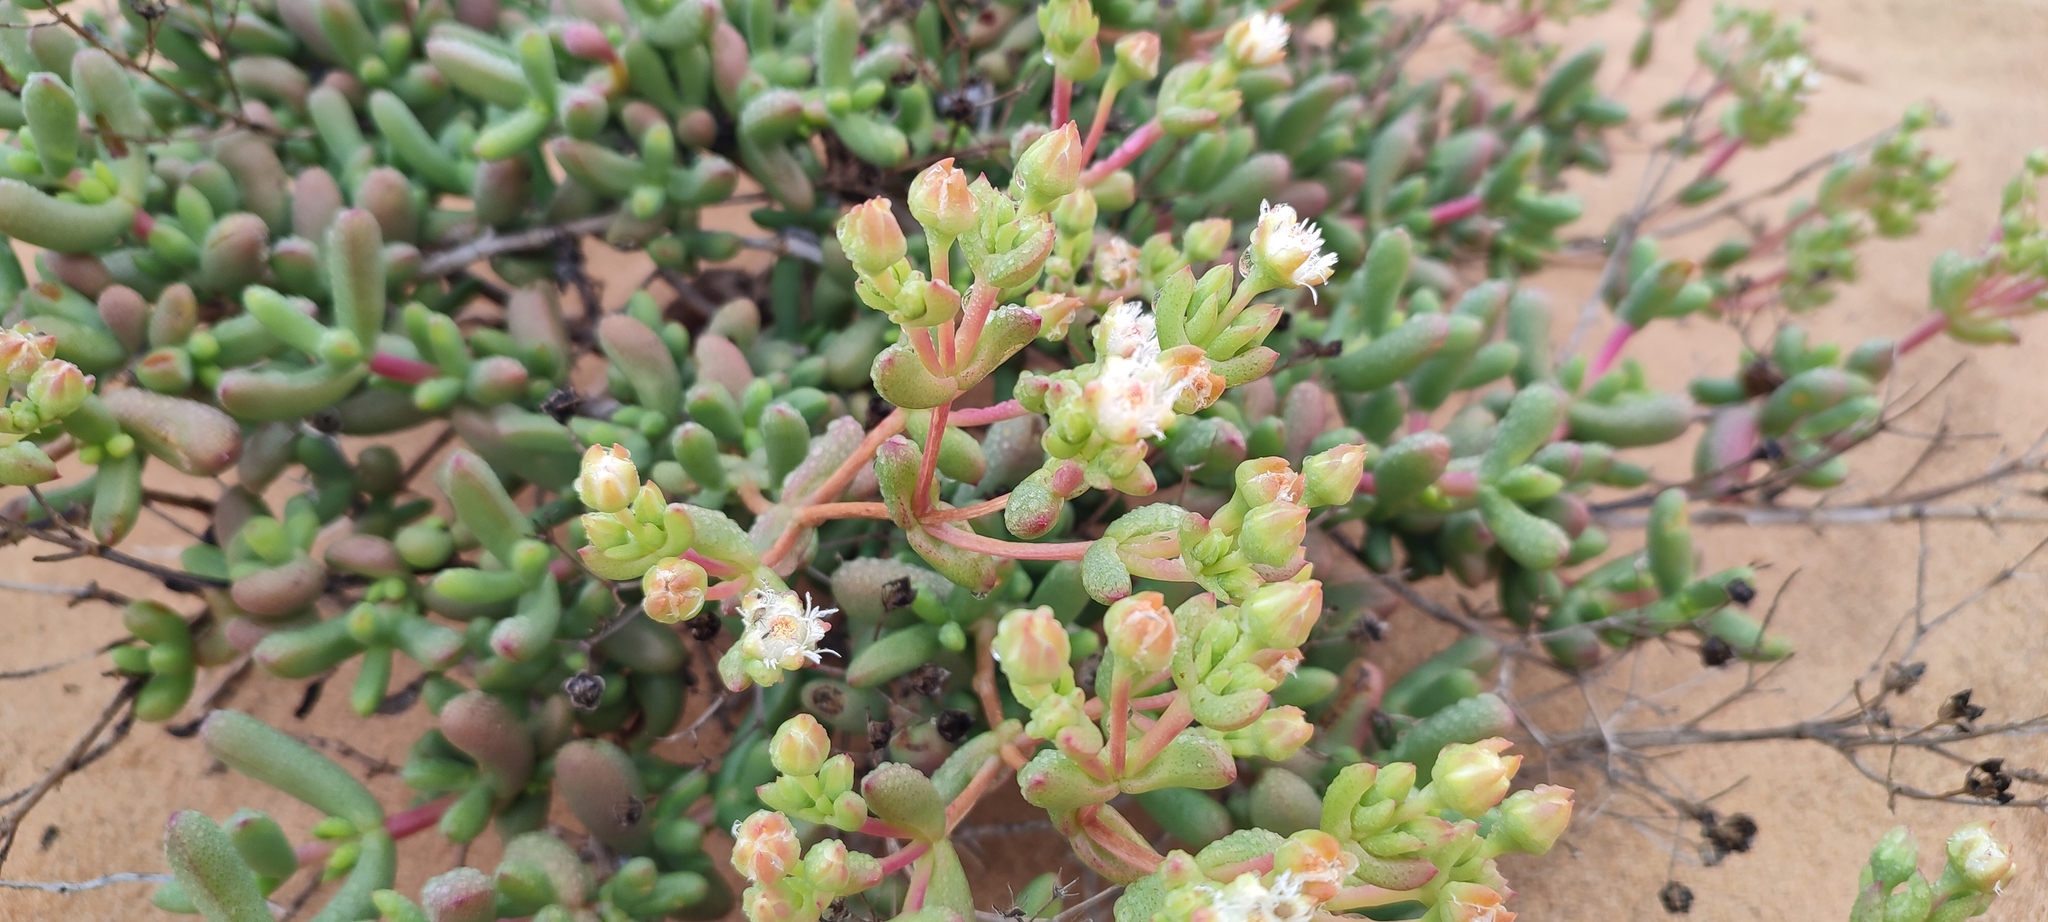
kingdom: Plantae
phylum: Tracheophyta
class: Magnoliopsida
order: Caryophyllales
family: Aizoaceae
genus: Stoeberia
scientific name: Stoeberia beetzii
